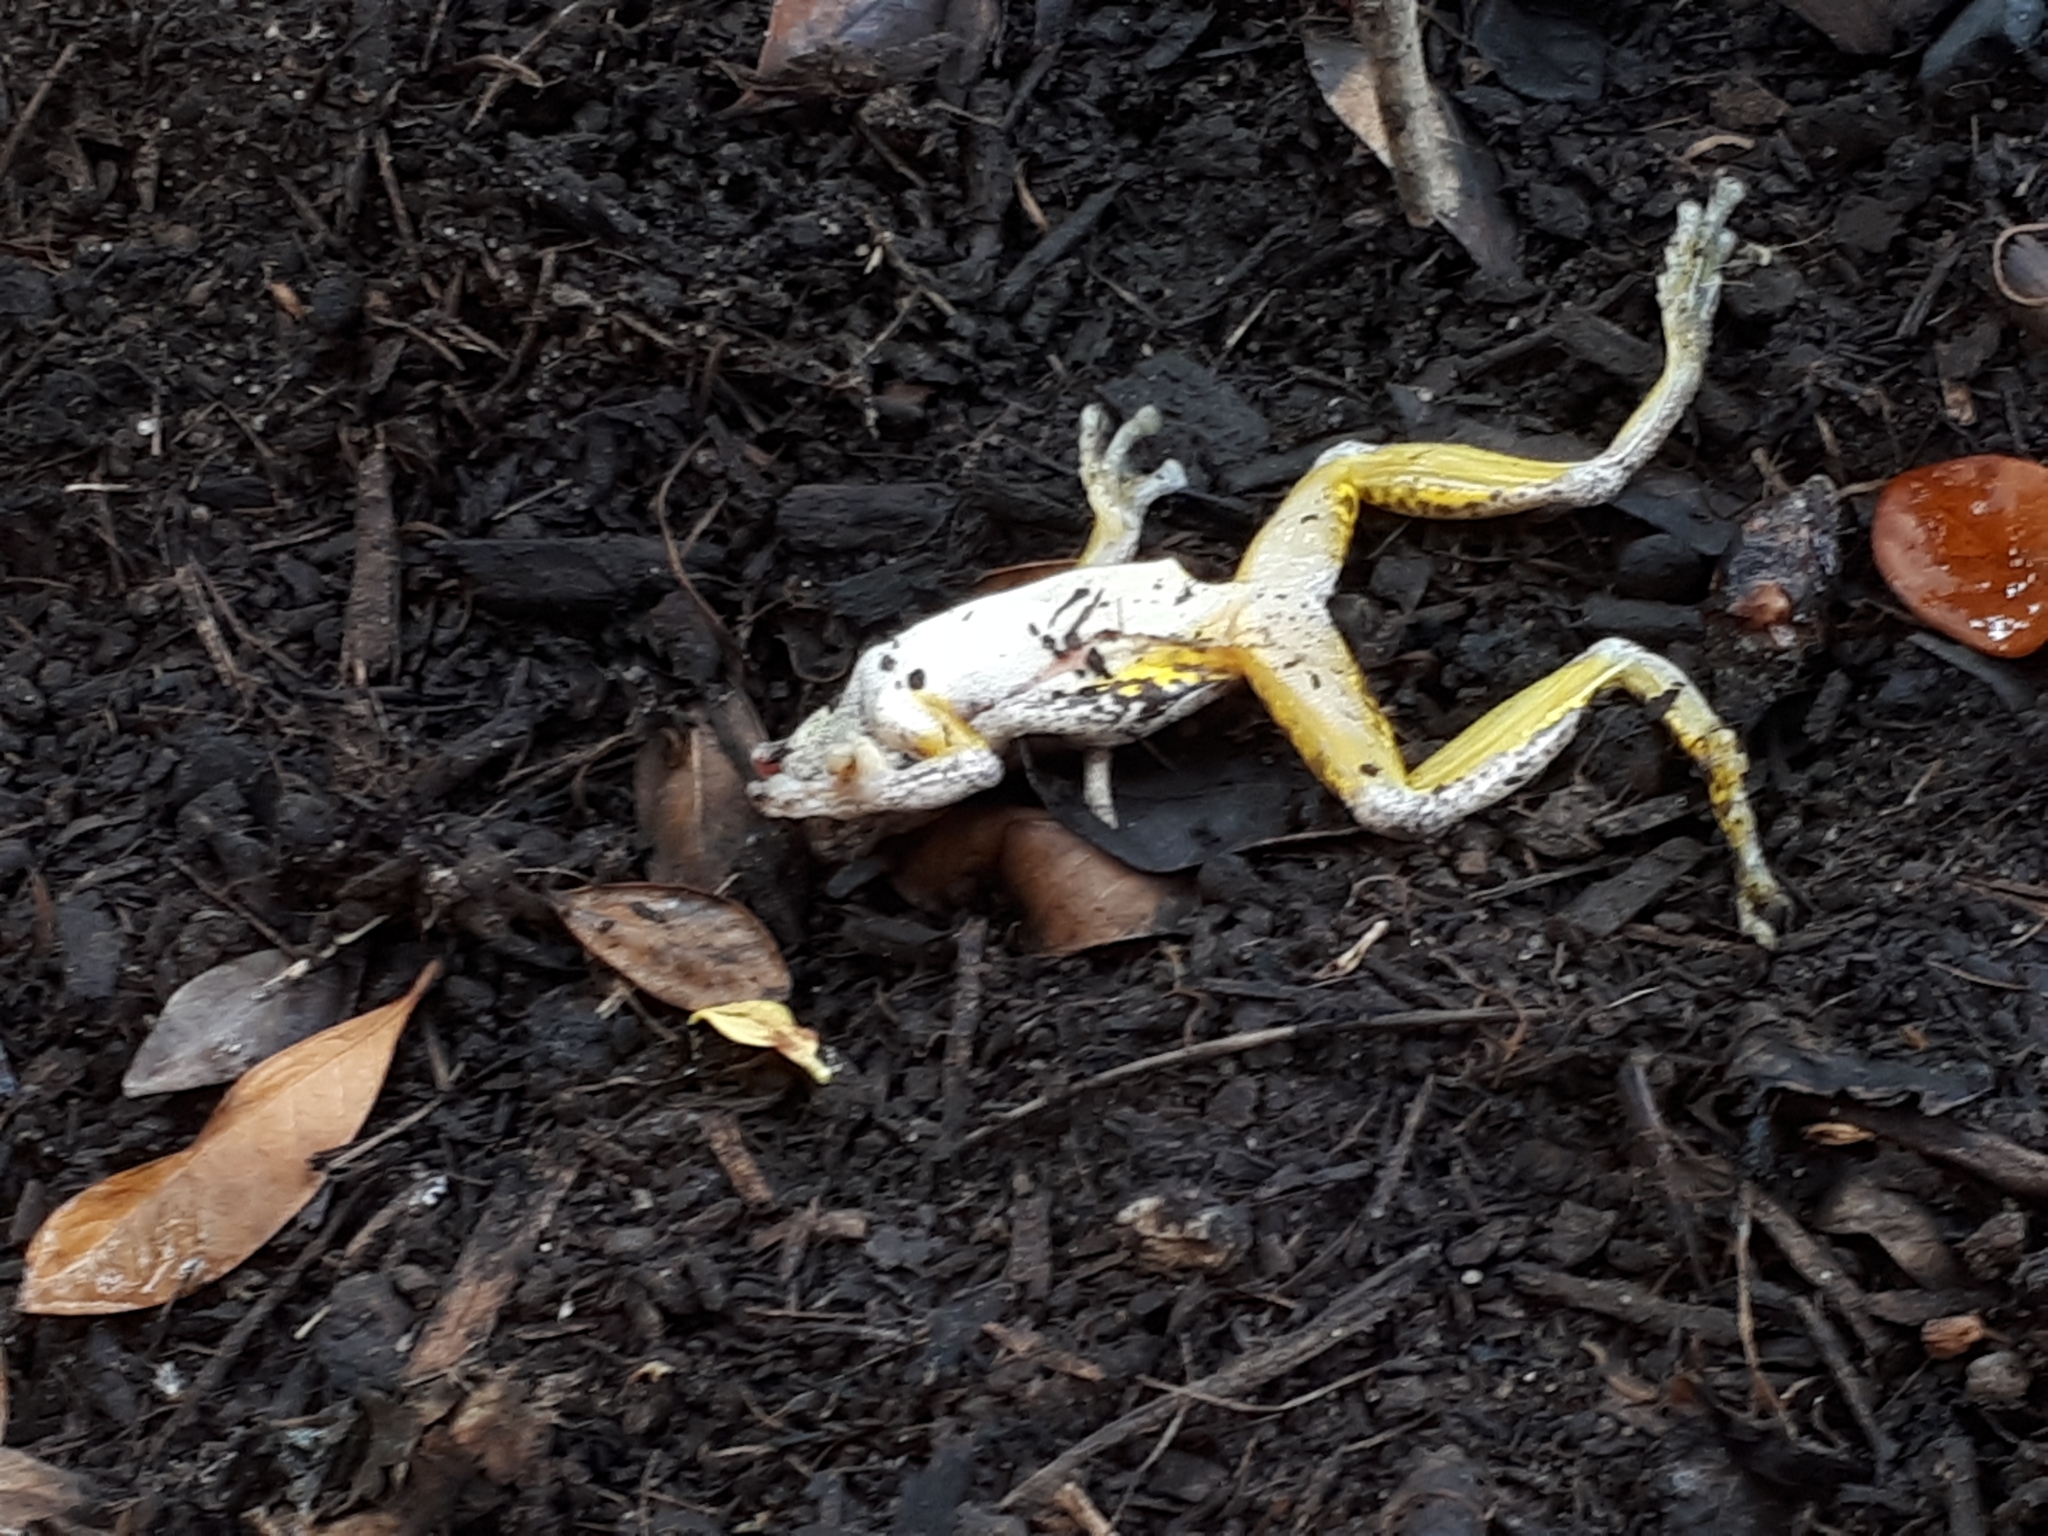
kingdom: Animalia
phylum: Chordata
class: Amphibia
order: Anura
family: Pelodryadidae
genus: Litoria
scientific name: Litoria peronii
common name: Emerald spotted treefrog
